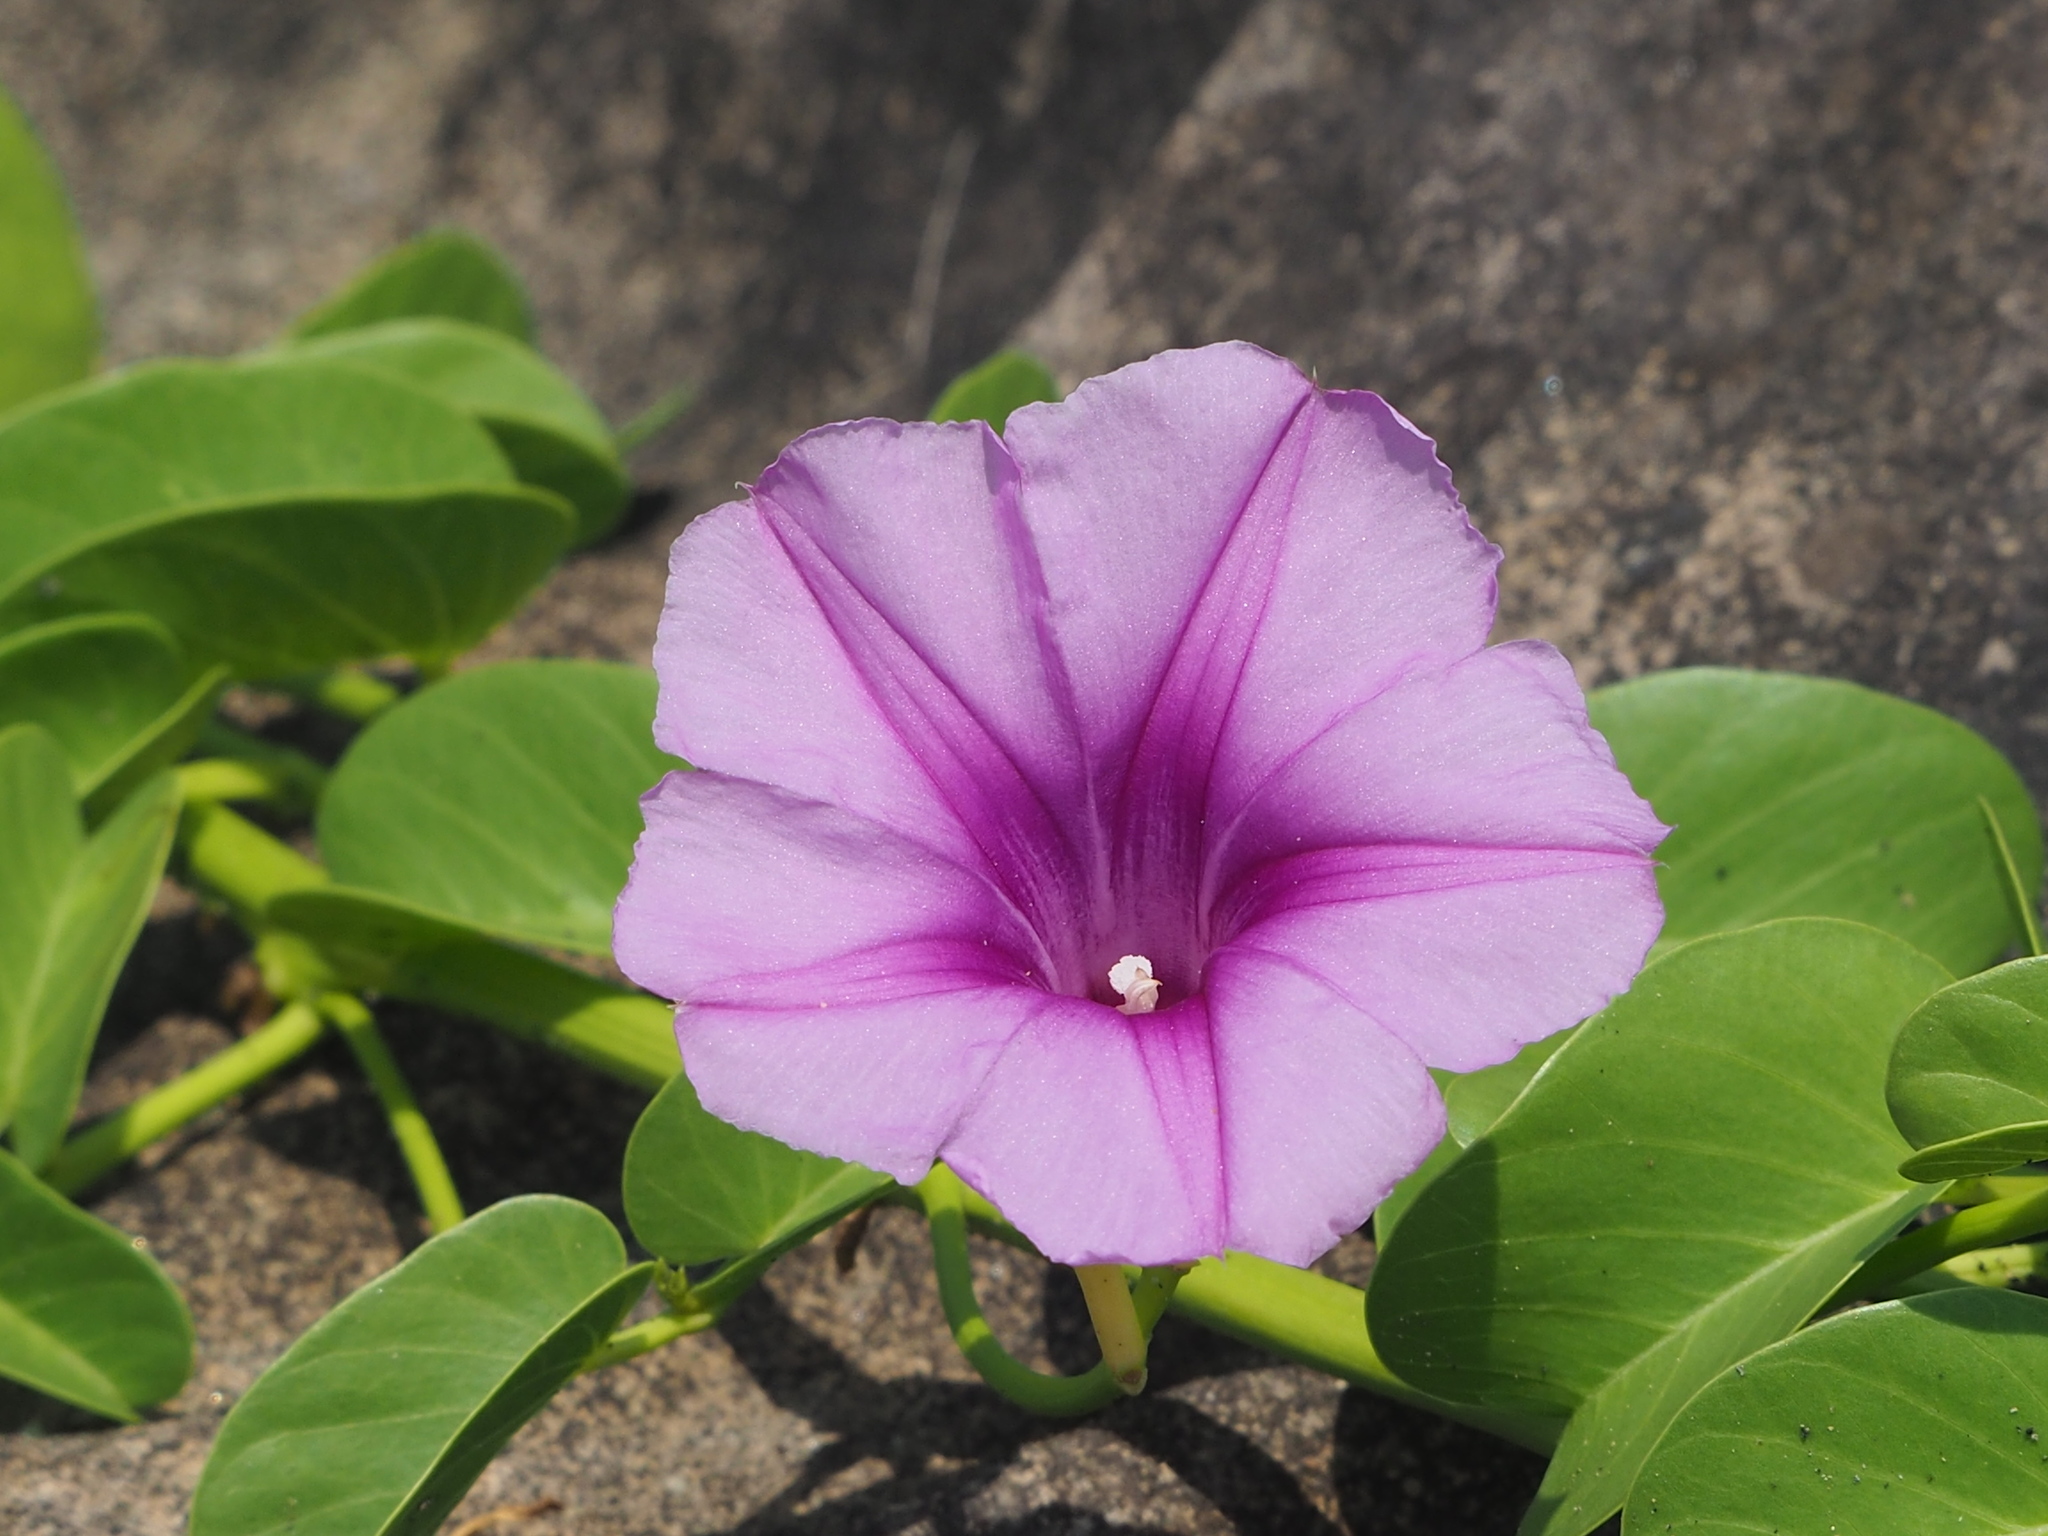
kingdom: Plantae
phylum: Tracheophyta
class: Magnoliopsida
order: Solanales
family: Convolvulaceae
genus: Ipomoea
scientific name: Ipomoea pes-caprae
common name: Beach morning glory
